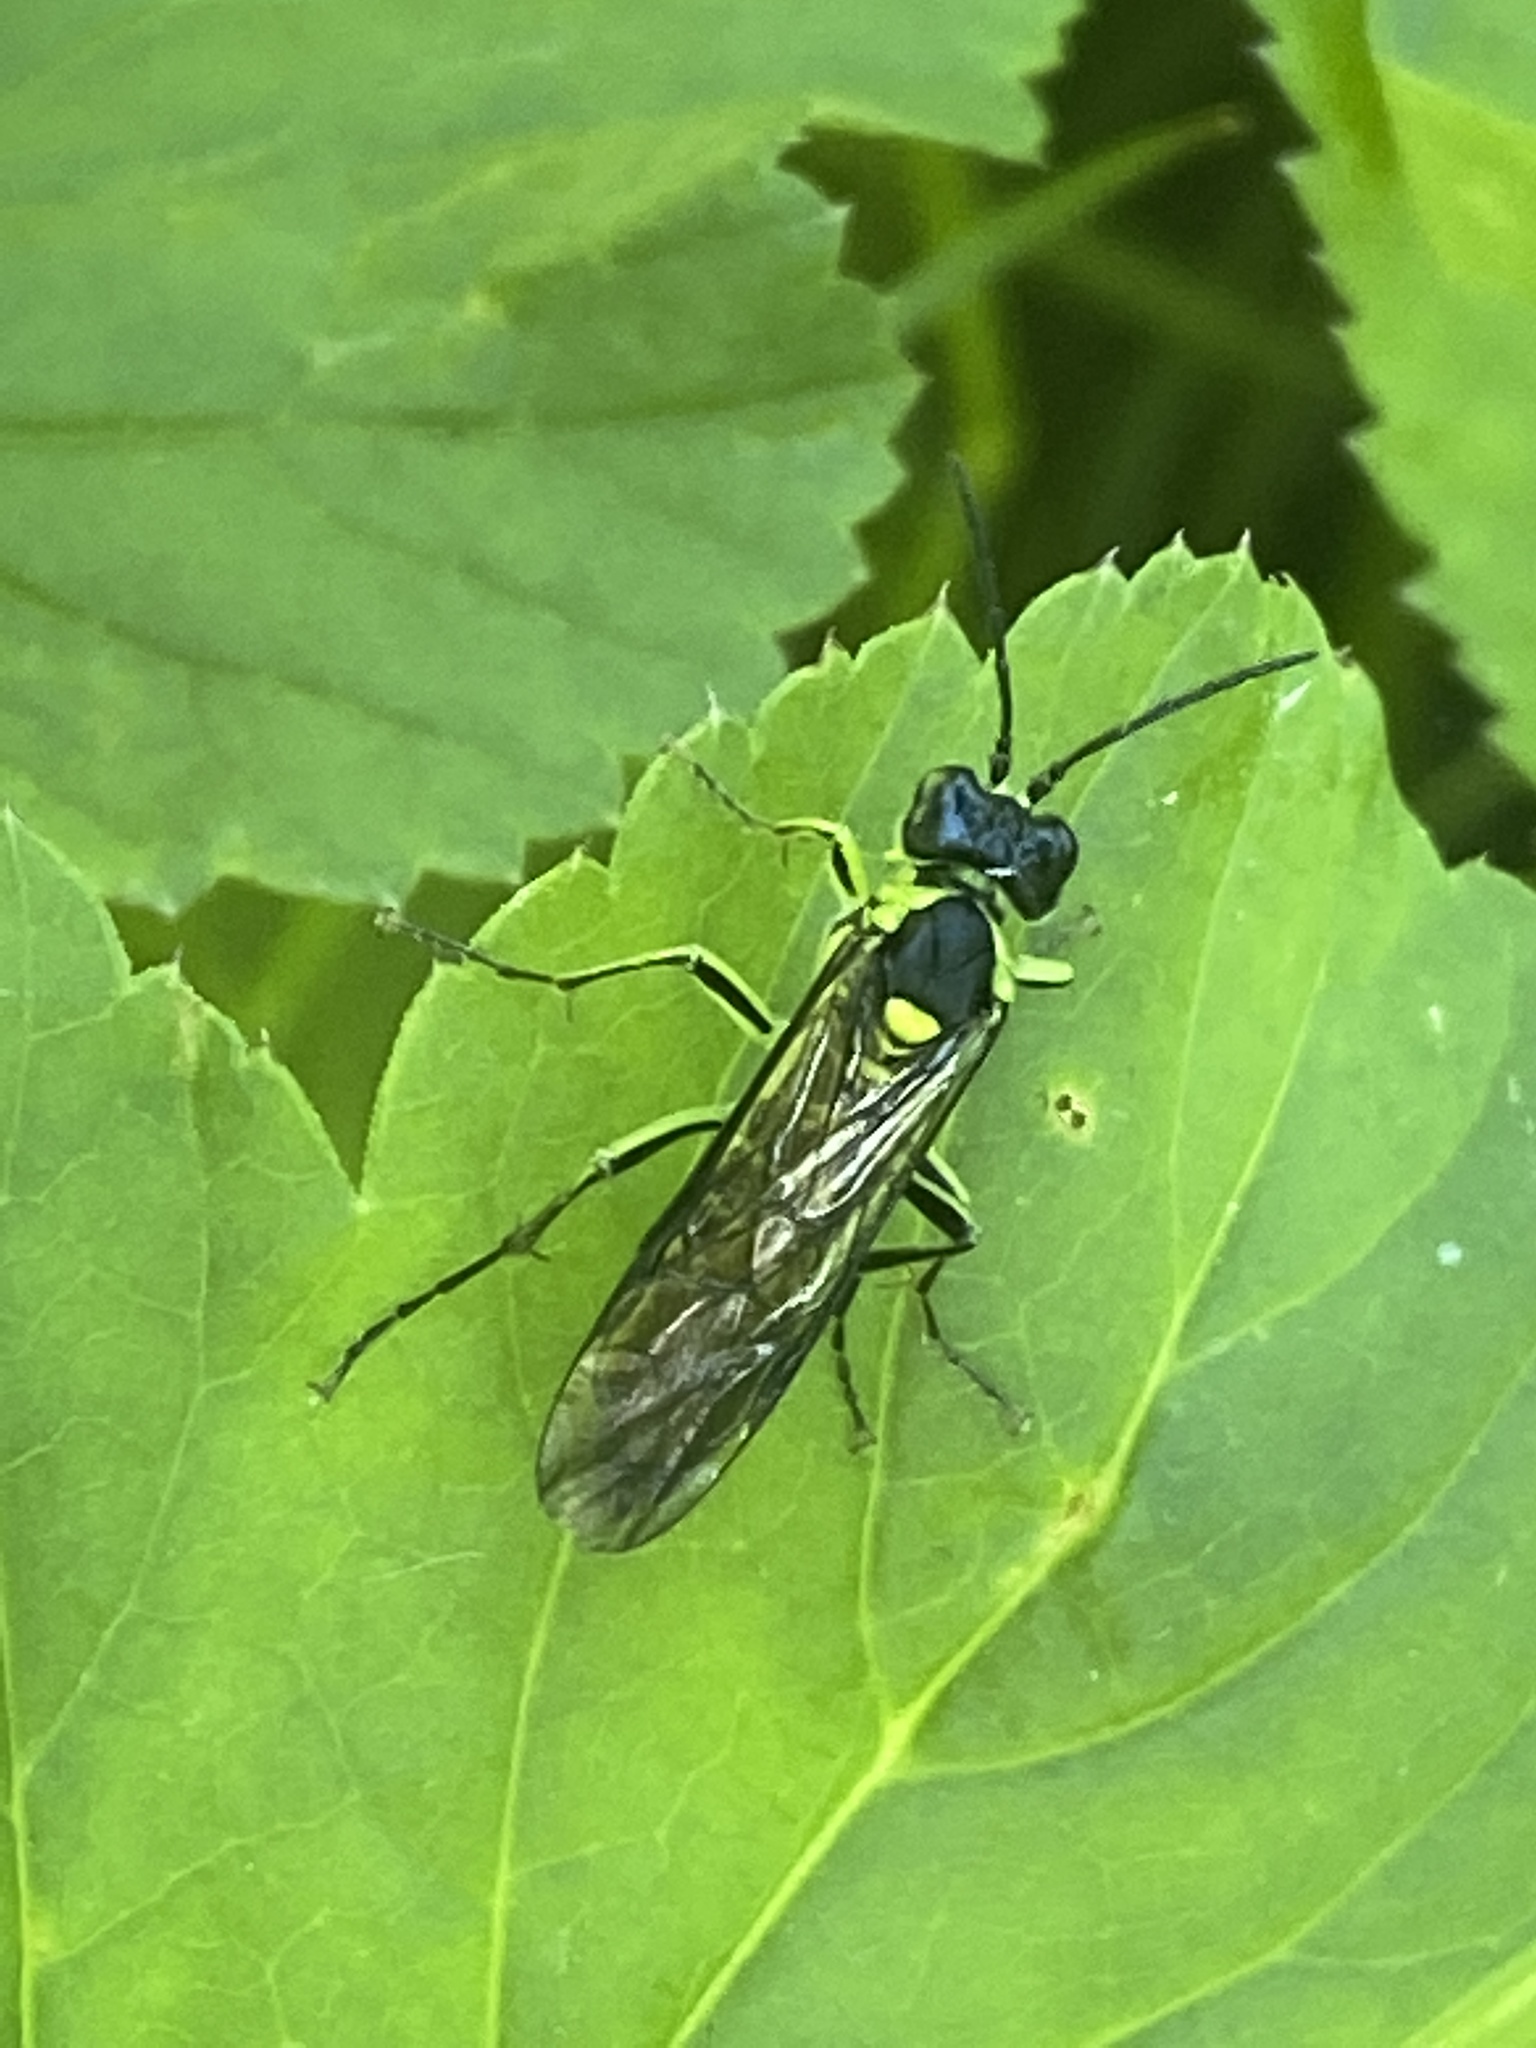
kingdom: Animalia
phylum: Arthropoda
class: Insecta
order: Hymenoptera
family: Tenthredinidae
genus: Tenthredo
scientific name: Tenthredo mesomela
